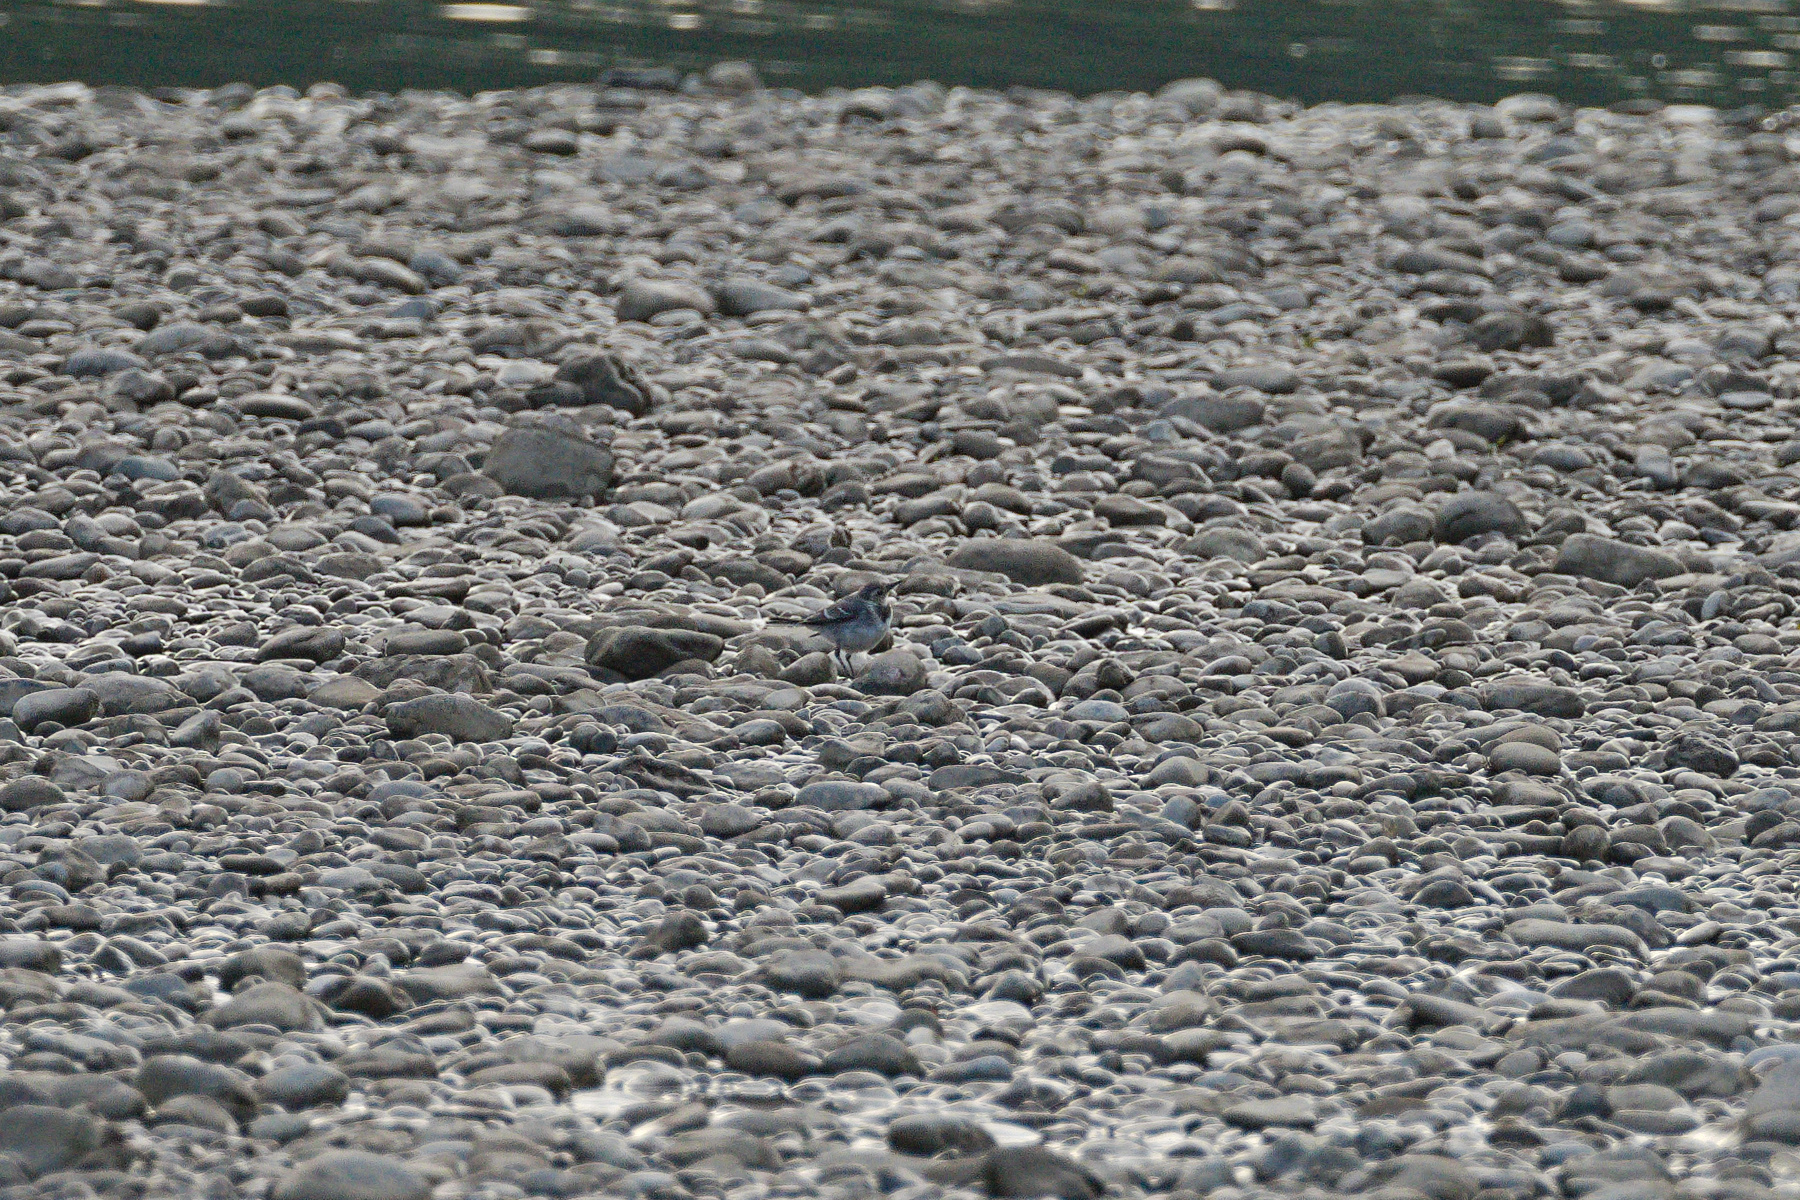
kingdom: Animalia
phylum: Chordata
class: Aves
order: Passeriformes
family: Motacillidae
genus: Motacilla
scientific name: Motacilla alba
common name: White wagtail
